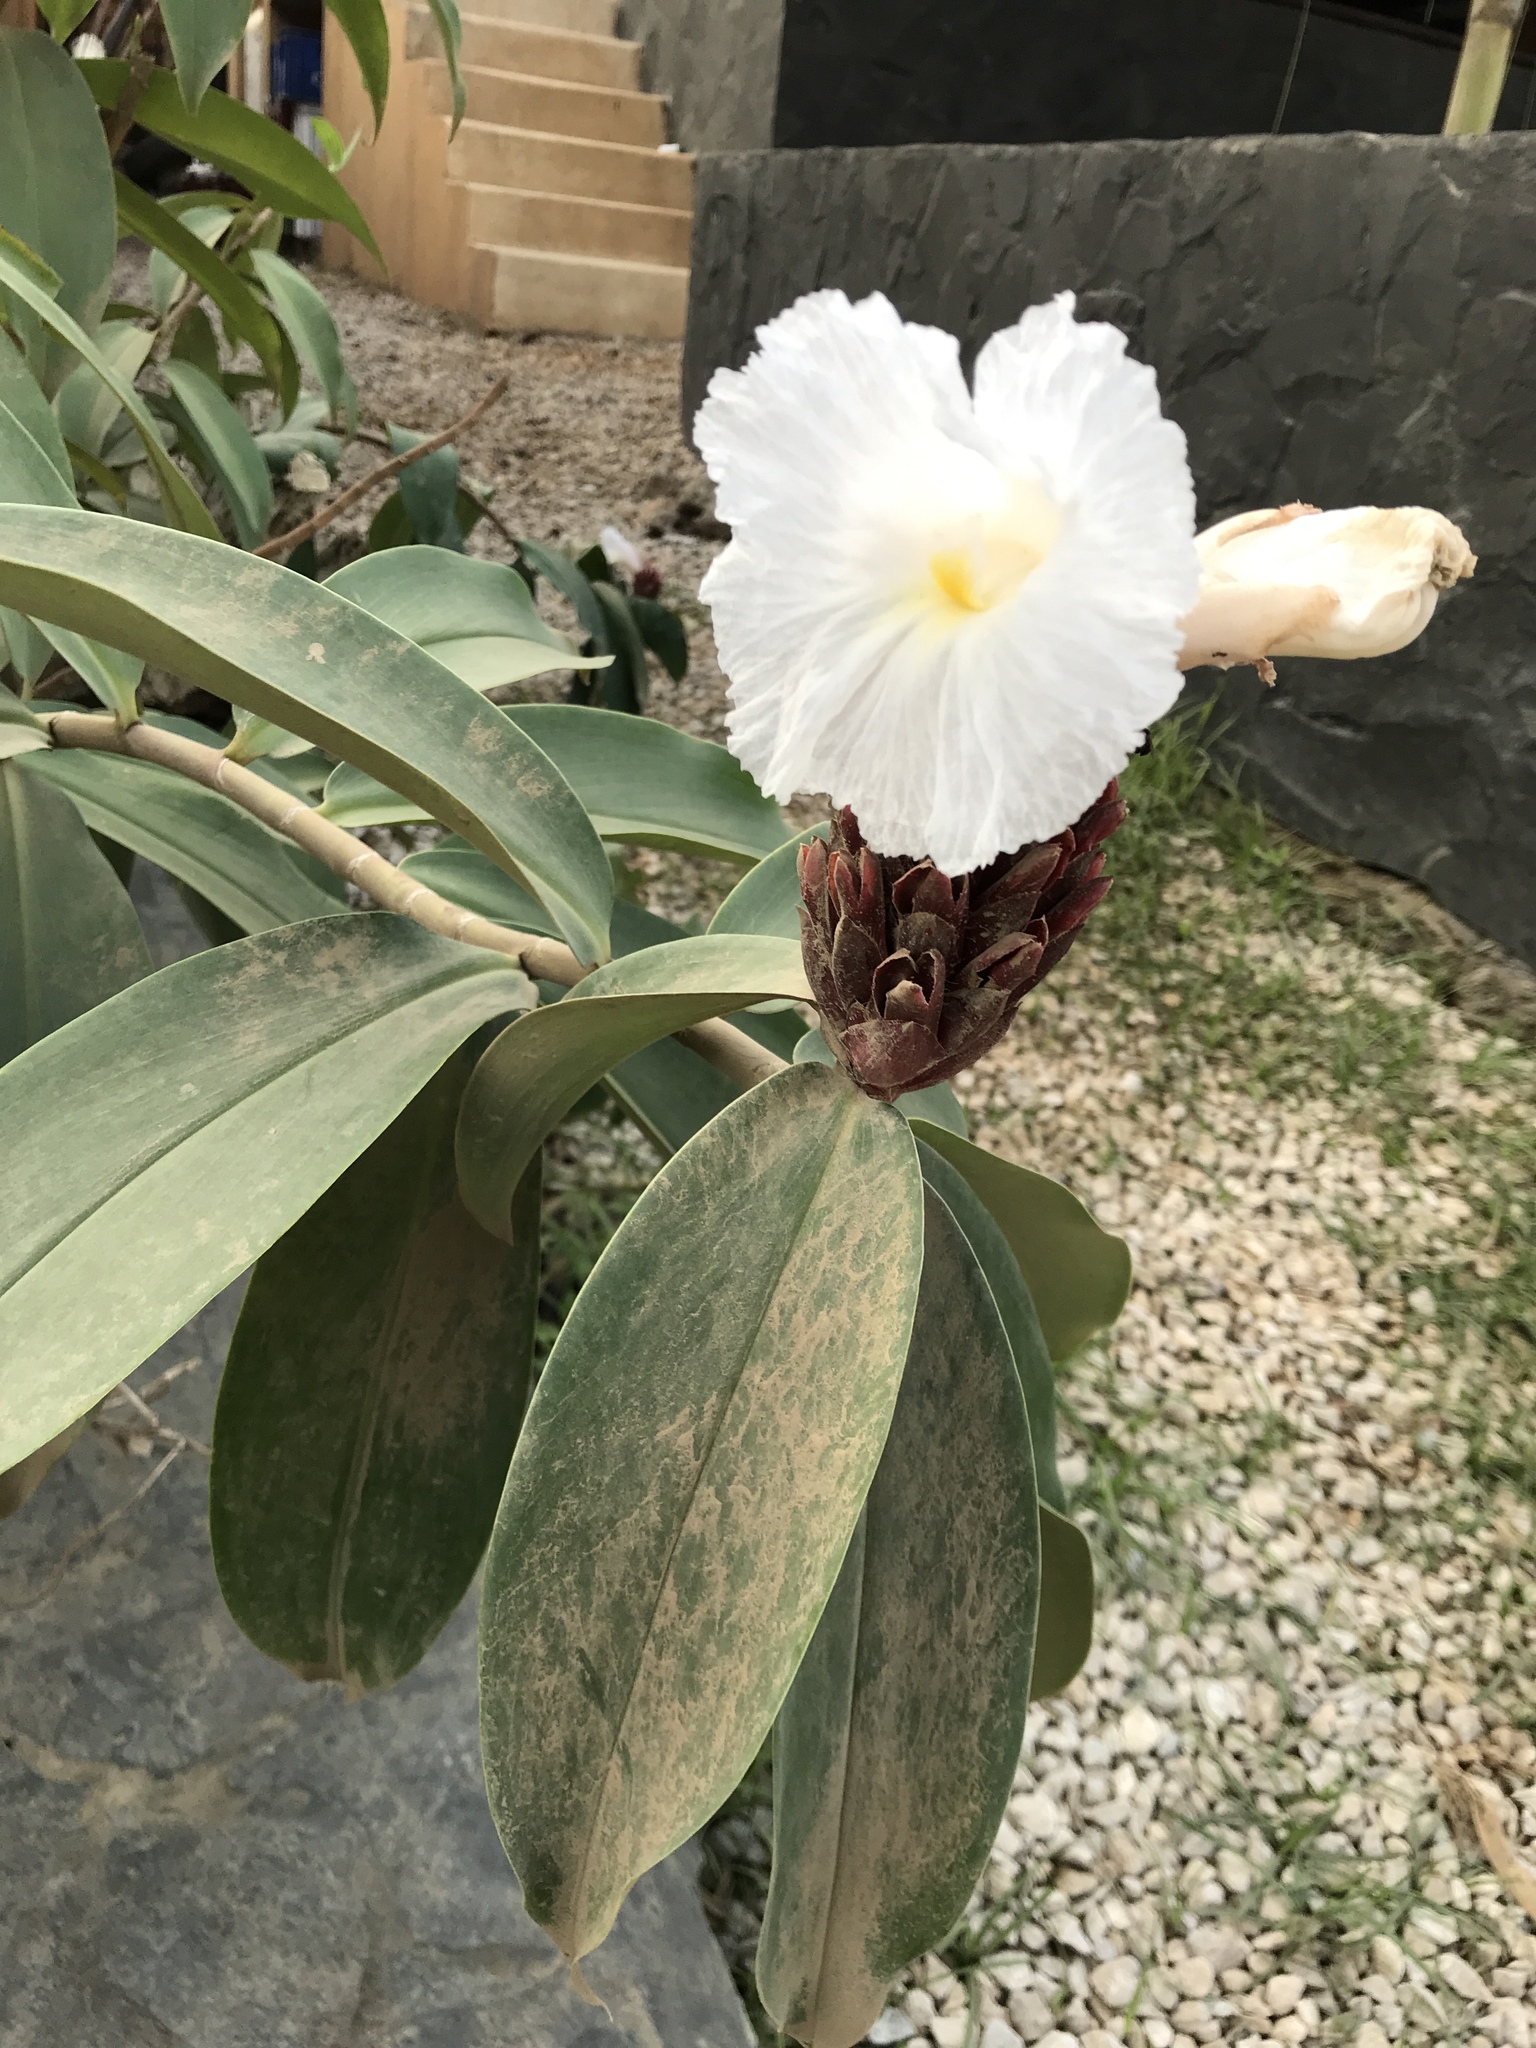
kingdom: Plantae
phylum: Tracheophyta
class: Liliopsida
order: Zingiberales
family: Costaceae
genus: Hellenia
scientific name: Hellenia speciosa
